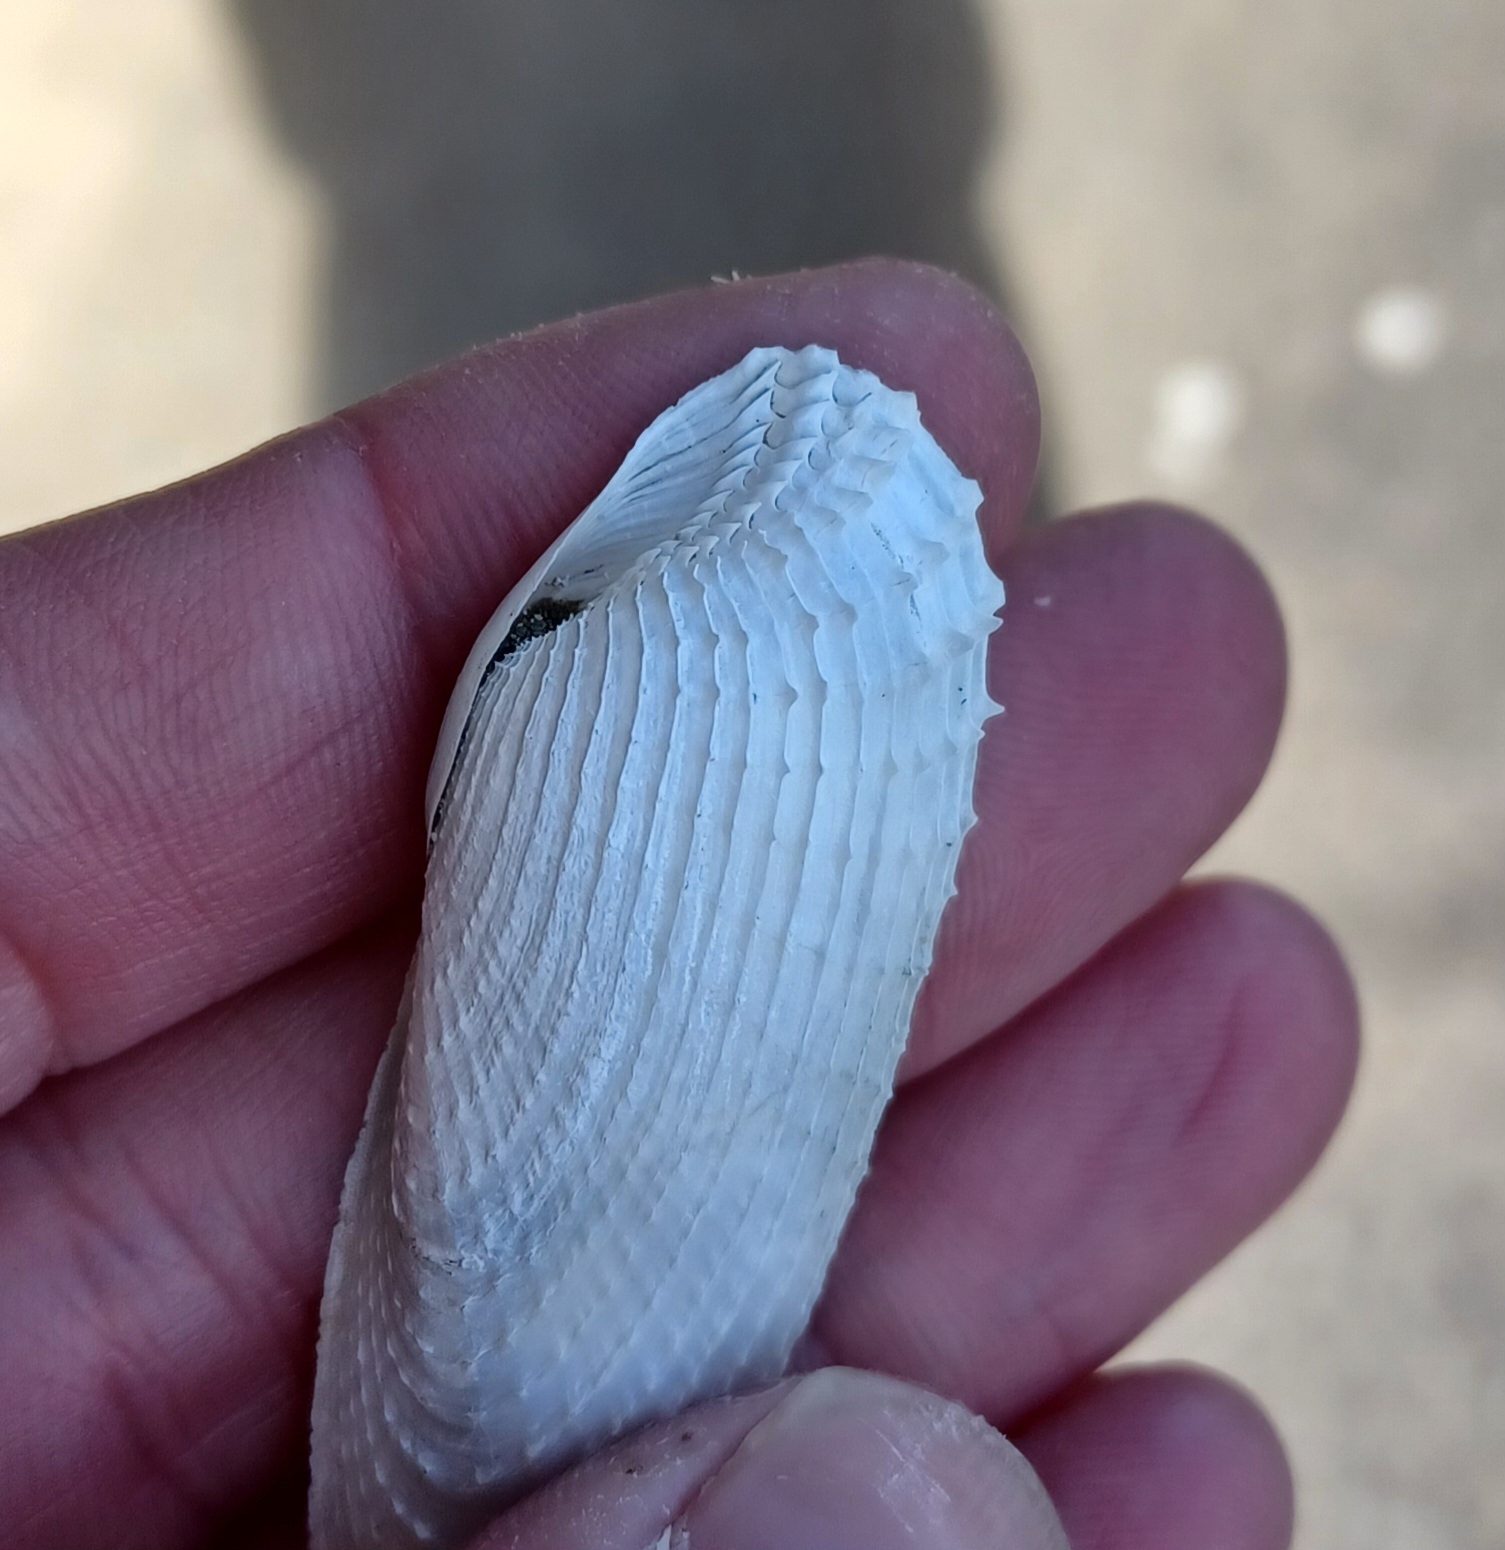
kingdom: Animalia
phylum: Mollusca
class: Bivalvia
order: Myida
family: Pholadidae
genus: Barnea
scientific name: Barnea australasiae
